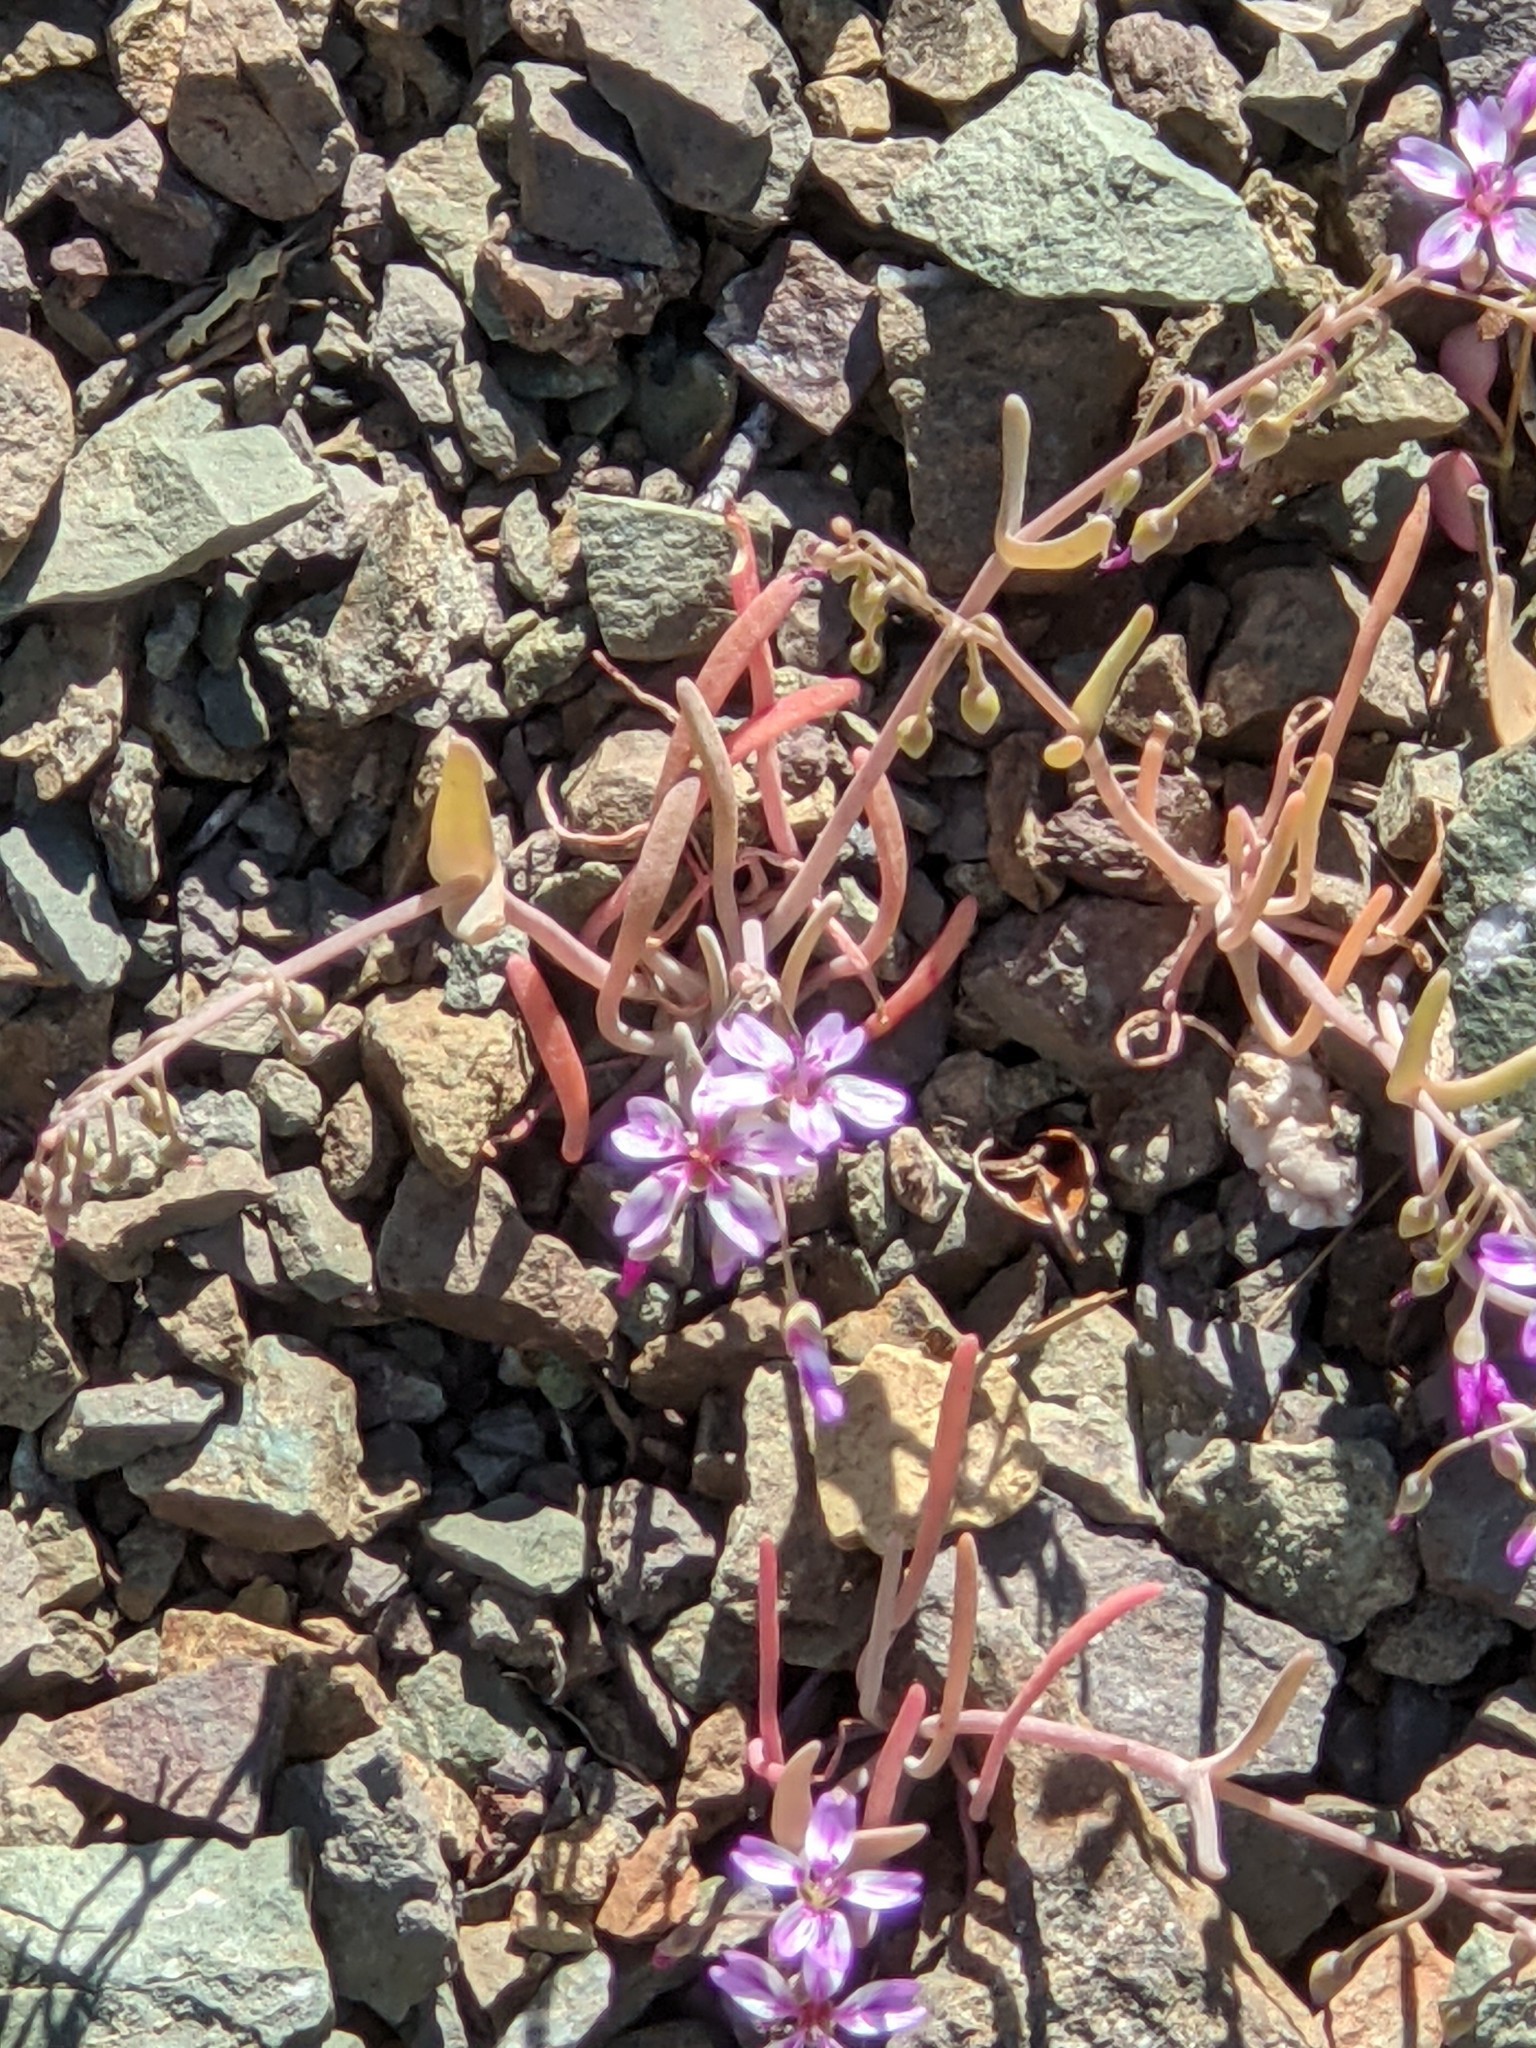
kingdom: Plantae
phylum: Tracheophyta
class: Magnoliopsida
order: Caryophyllales
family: Montiaceae
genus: Claytonia
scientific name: Claytonia gypsophiloides
